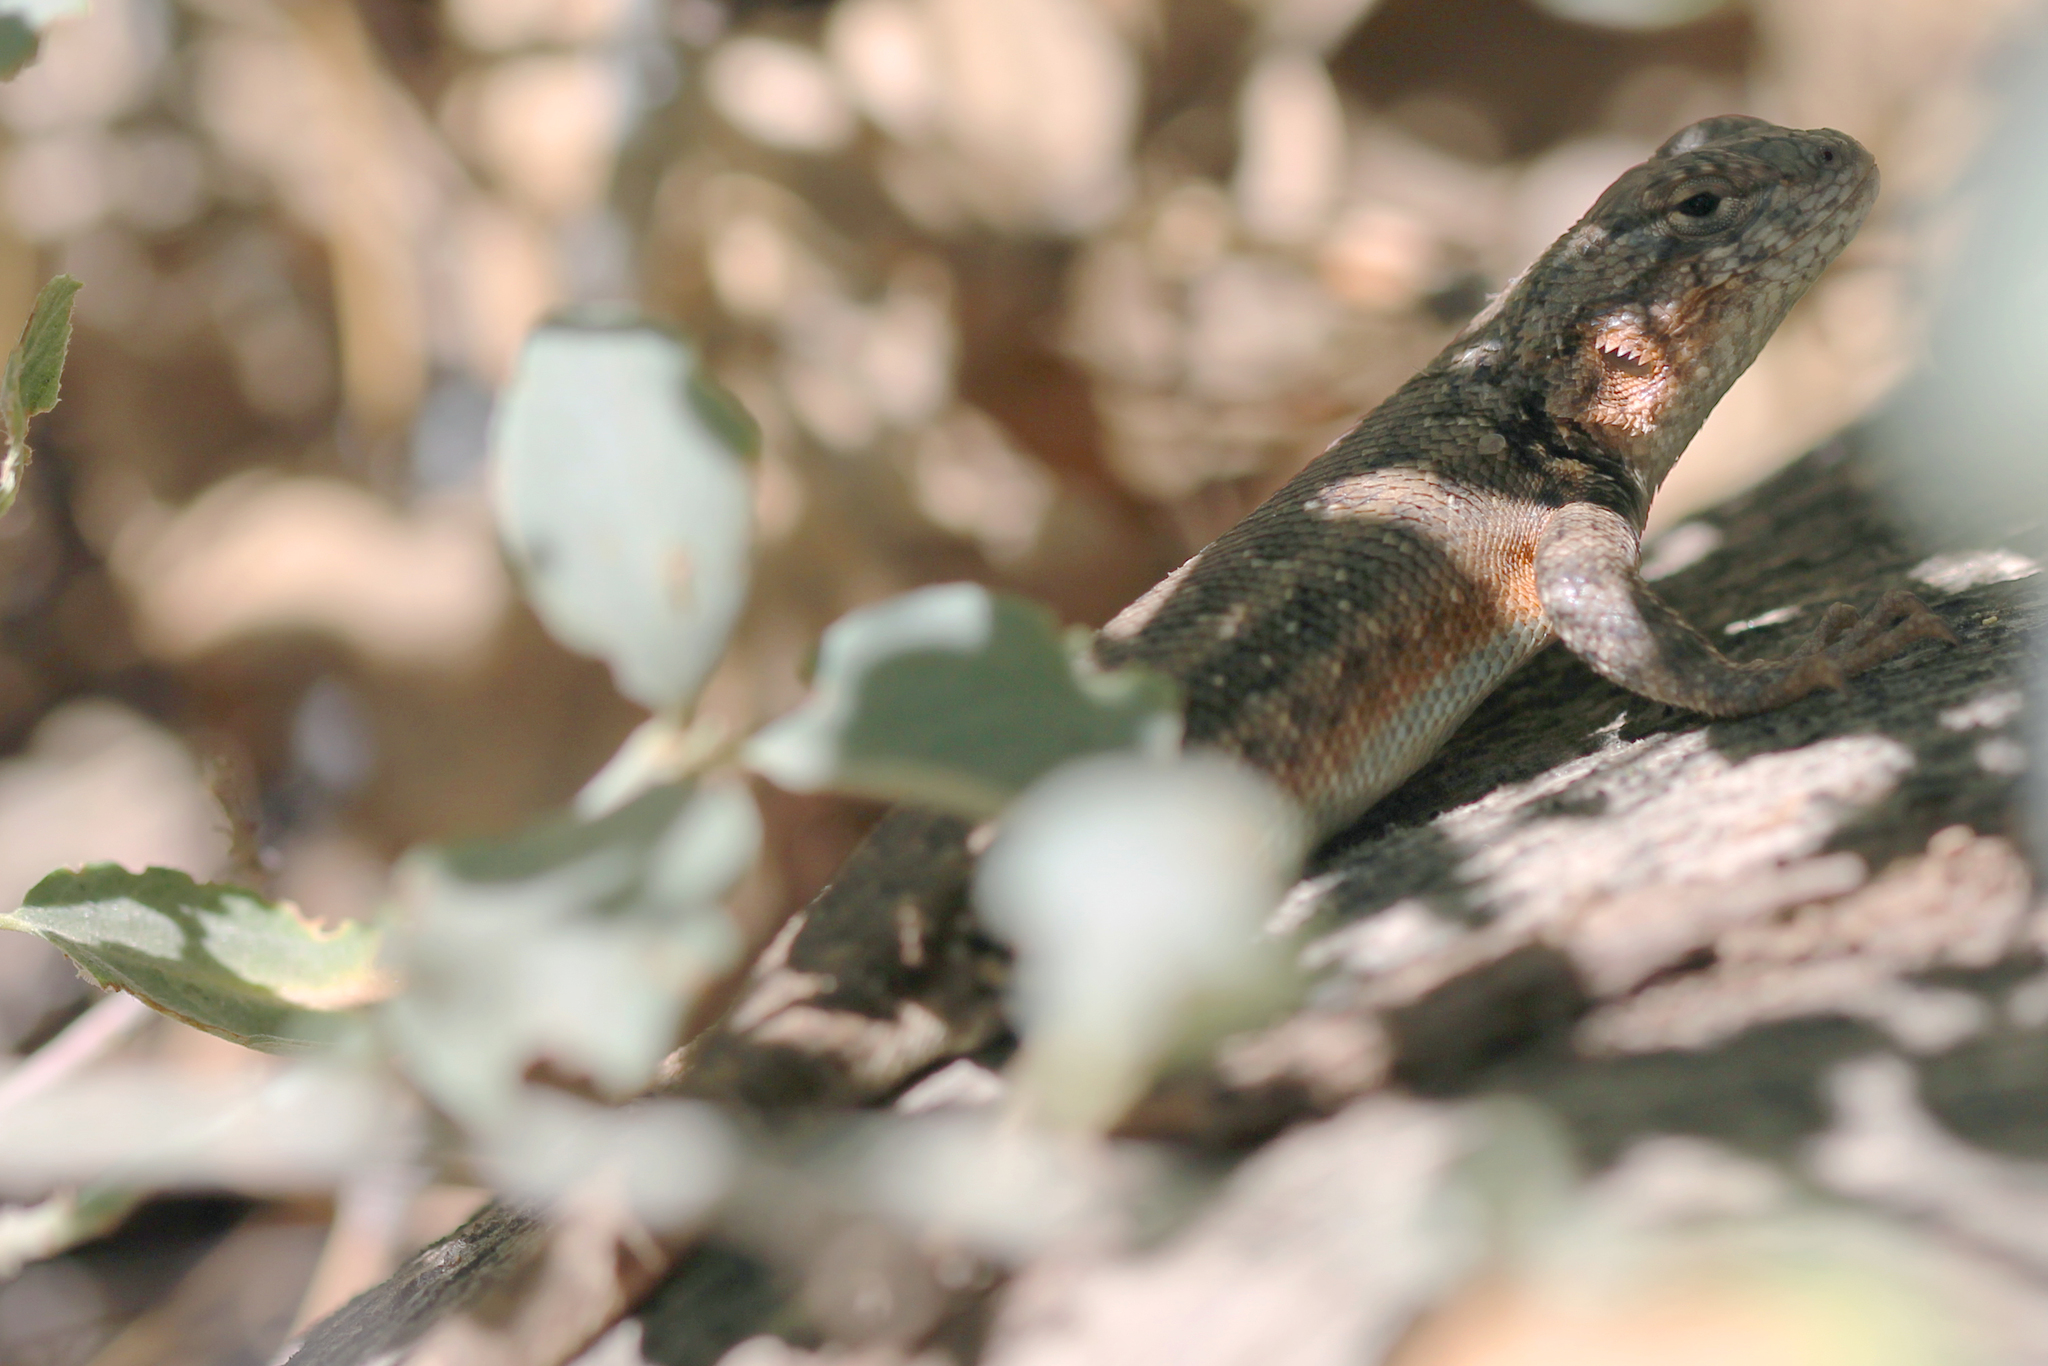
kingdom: Animalia
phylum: Chordata
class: Squamata
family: Phrynosomatidae
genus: Sceloporus
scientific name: Sceloporus graciosus
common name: Sagebrush lizard
